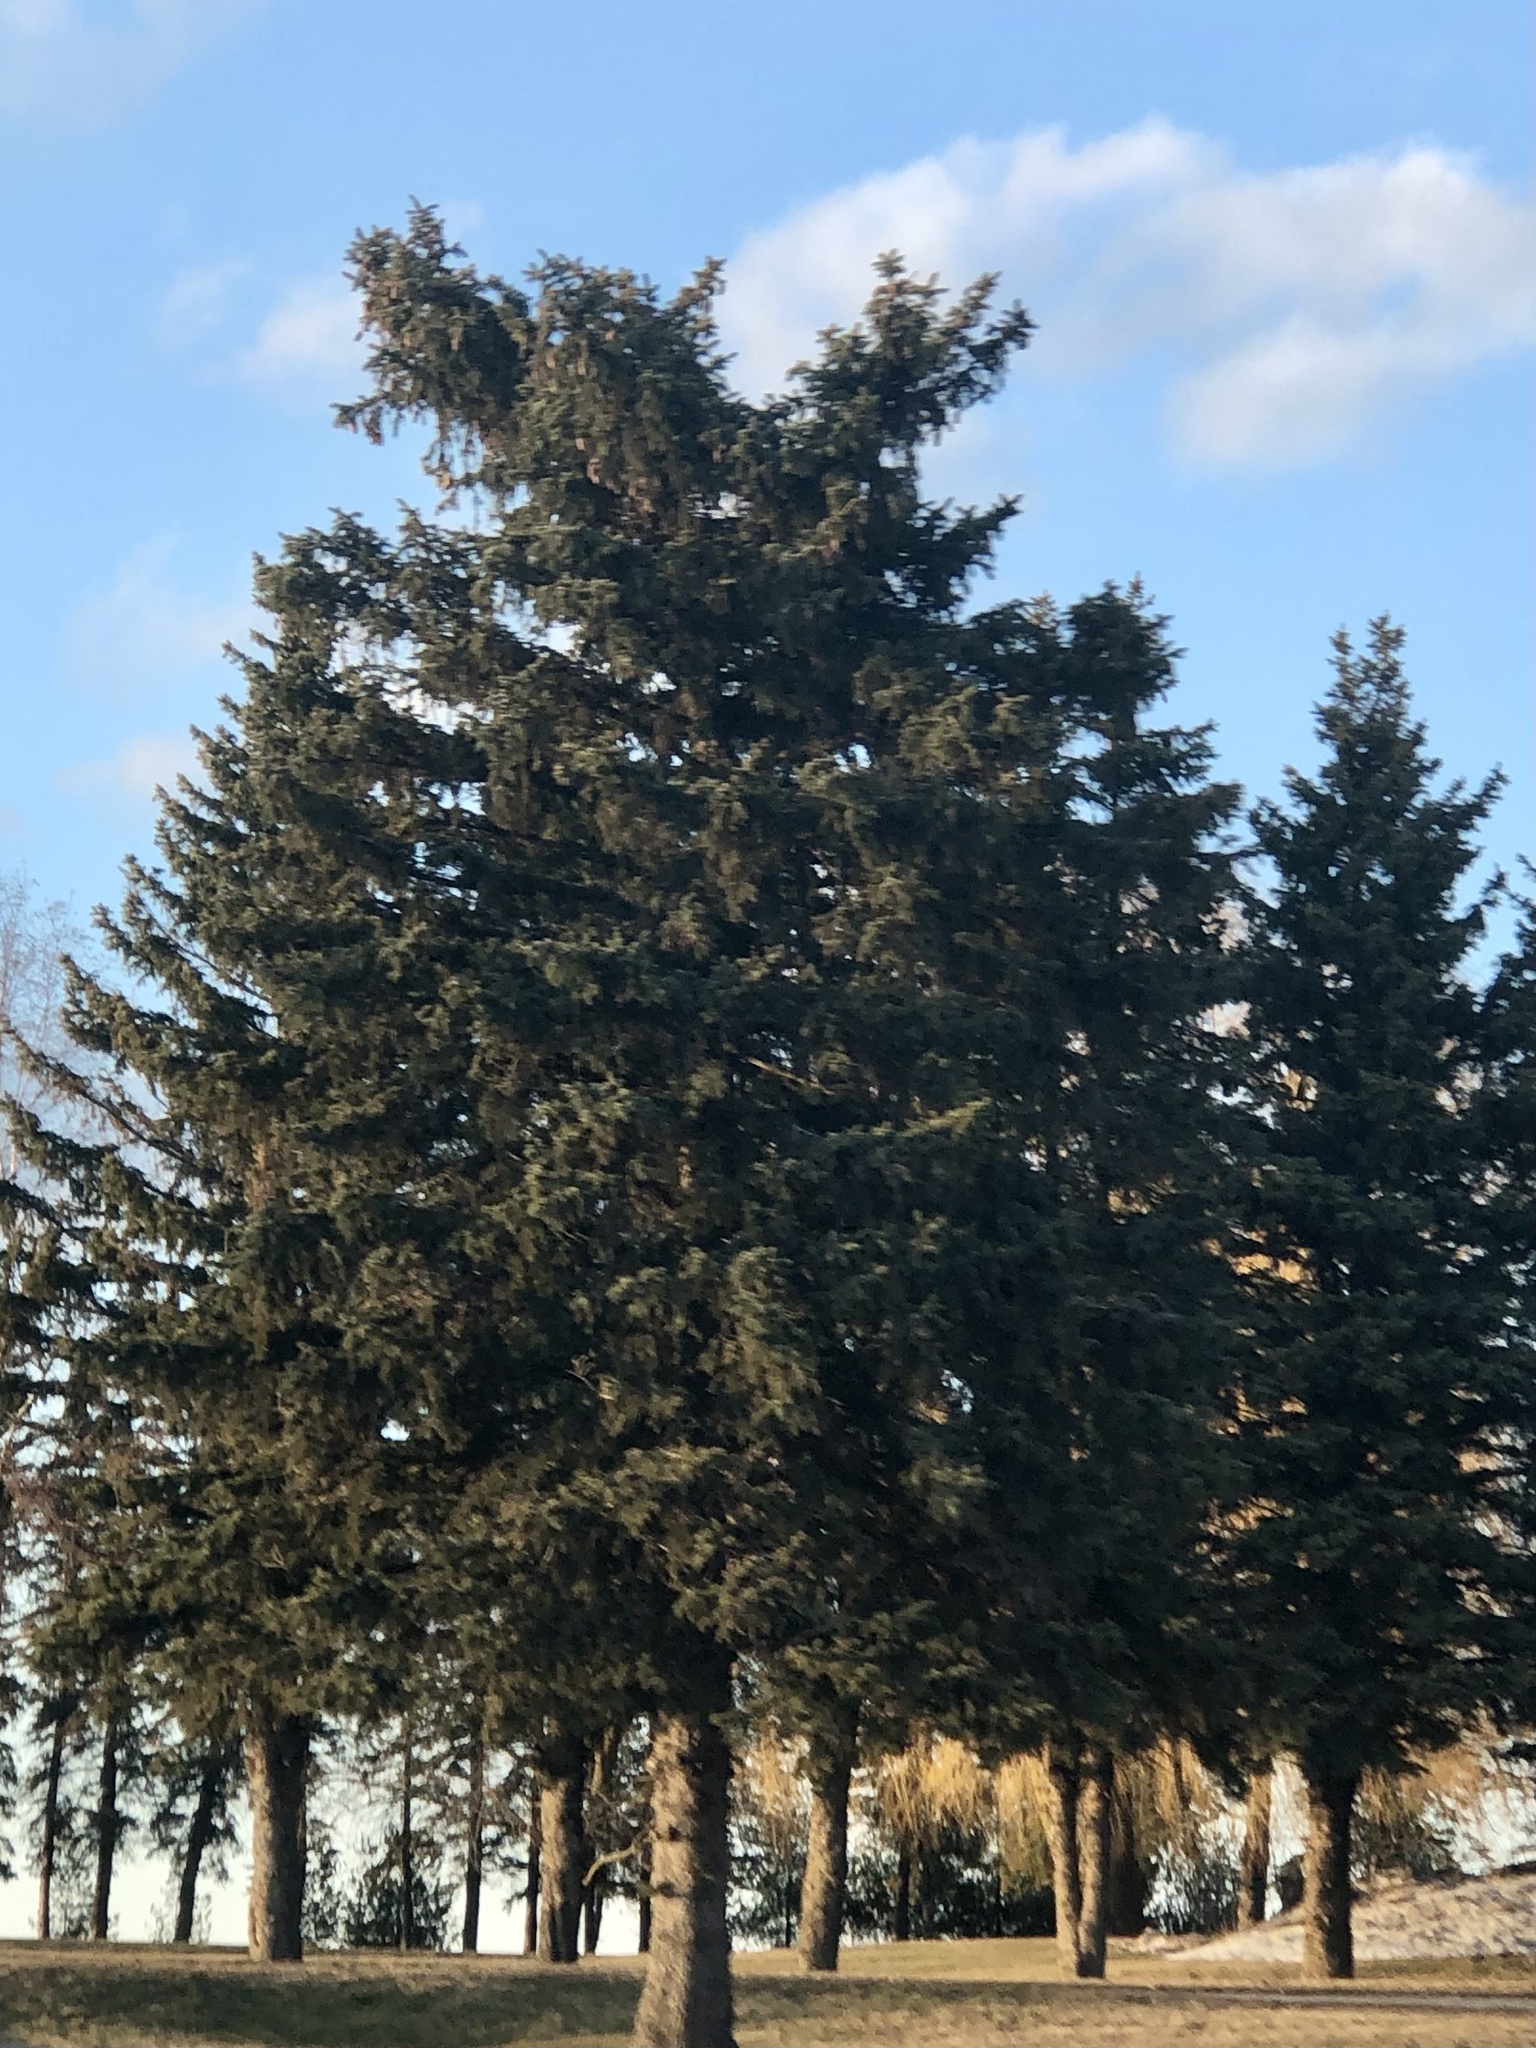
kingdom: Plantae
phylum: Tracheophyta
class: Pinopsida
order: Pinales
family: Pinaceae
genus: Picea
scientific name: Picea abies
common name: Norway spruce
